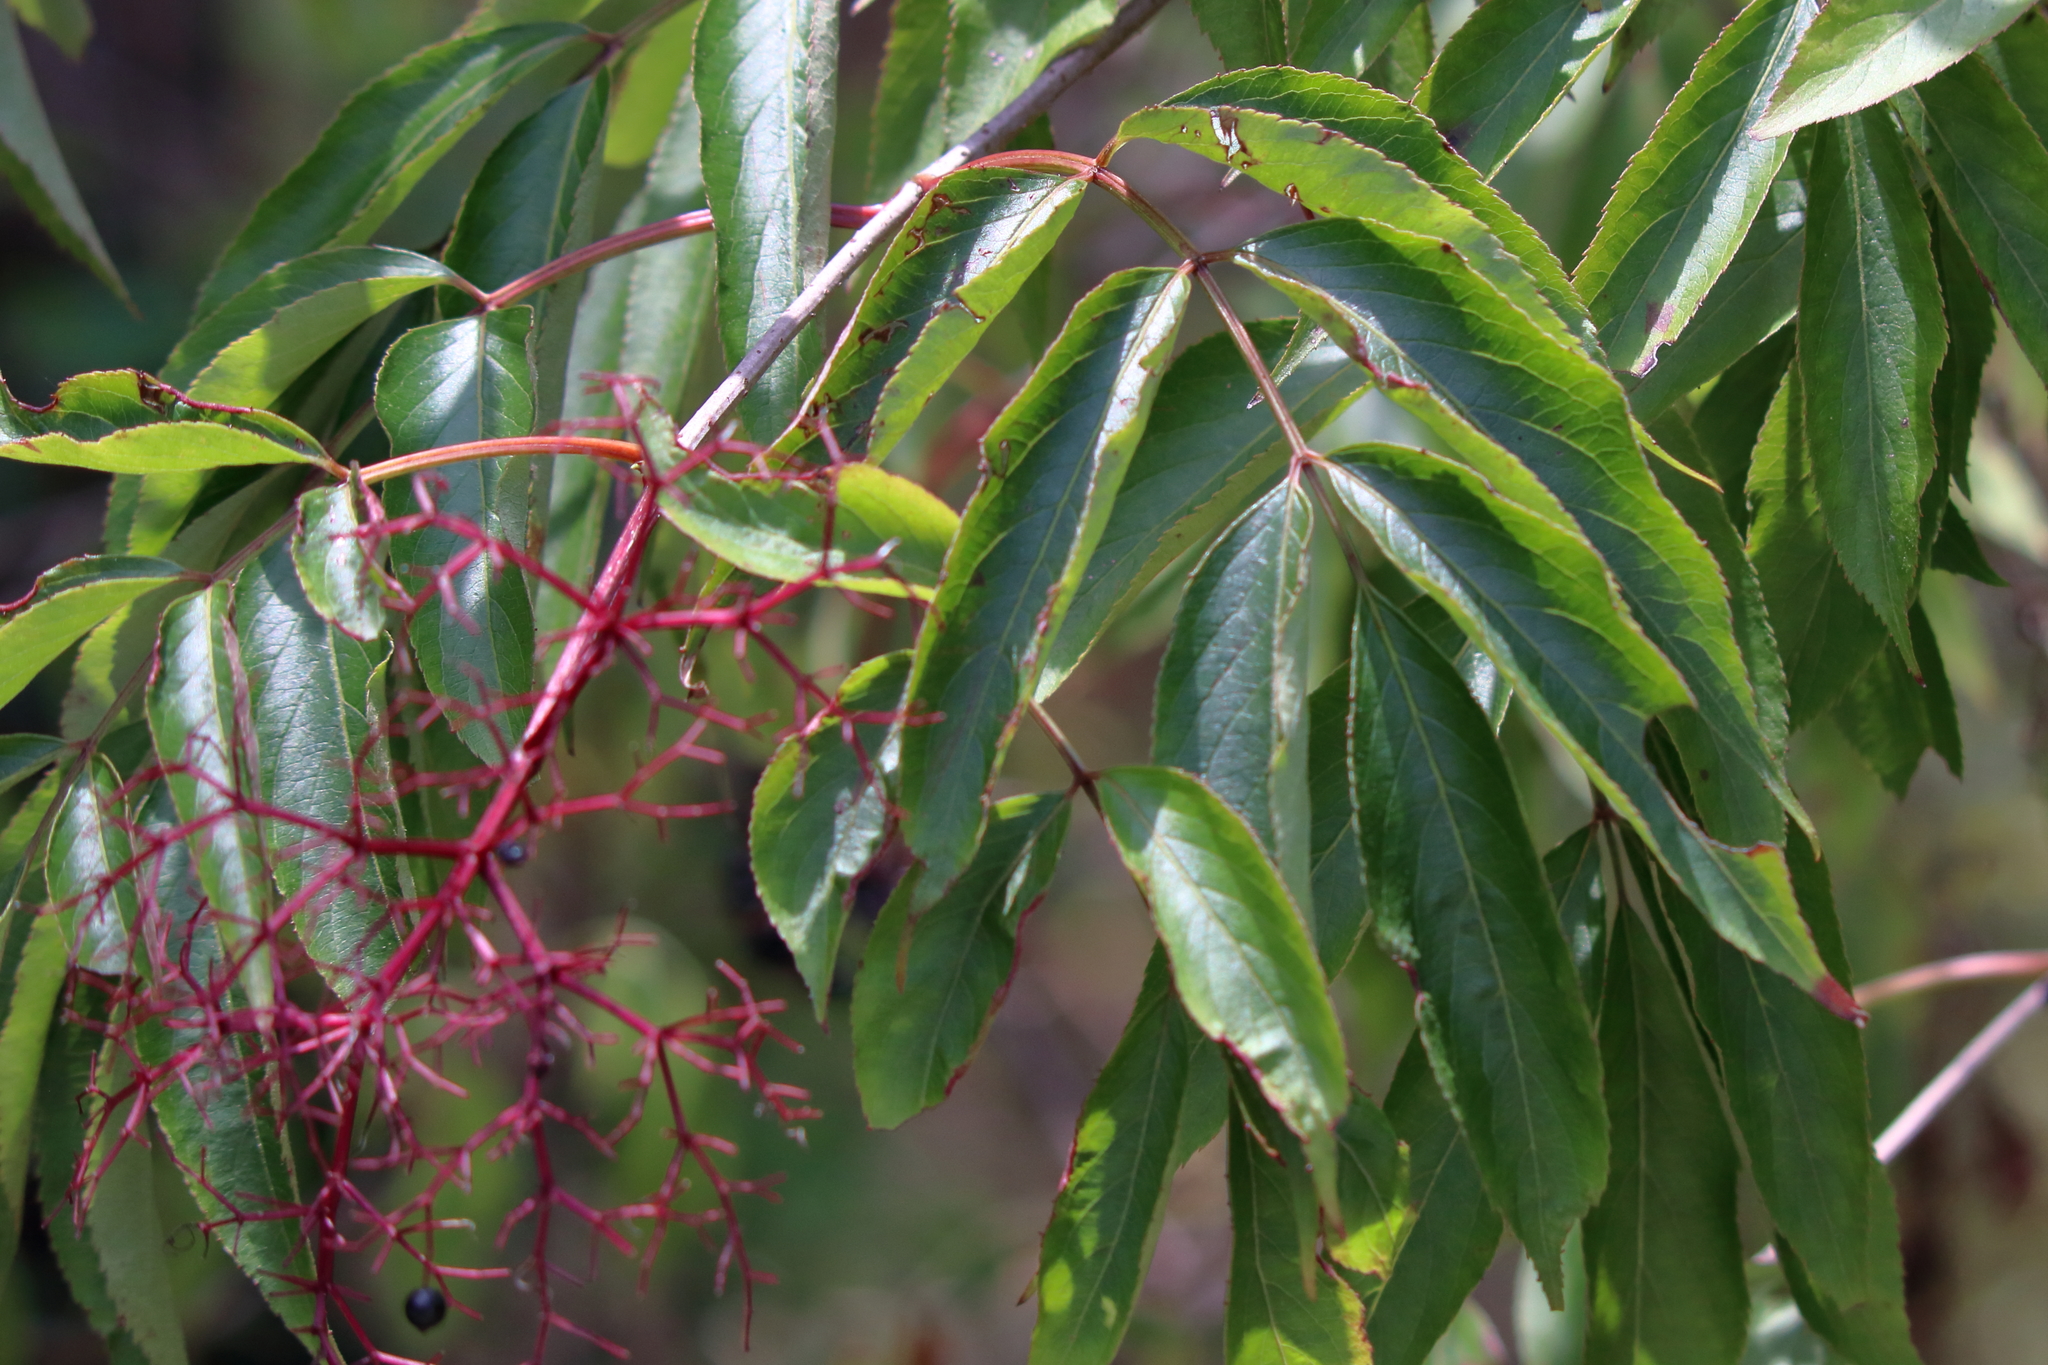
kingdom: Plantae
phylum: Tracheophyta
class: Magnoliopsida
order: Dipsacales
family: Viburnaceae
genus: Sambucus
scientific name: Sambucus canadensis
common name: American elder
